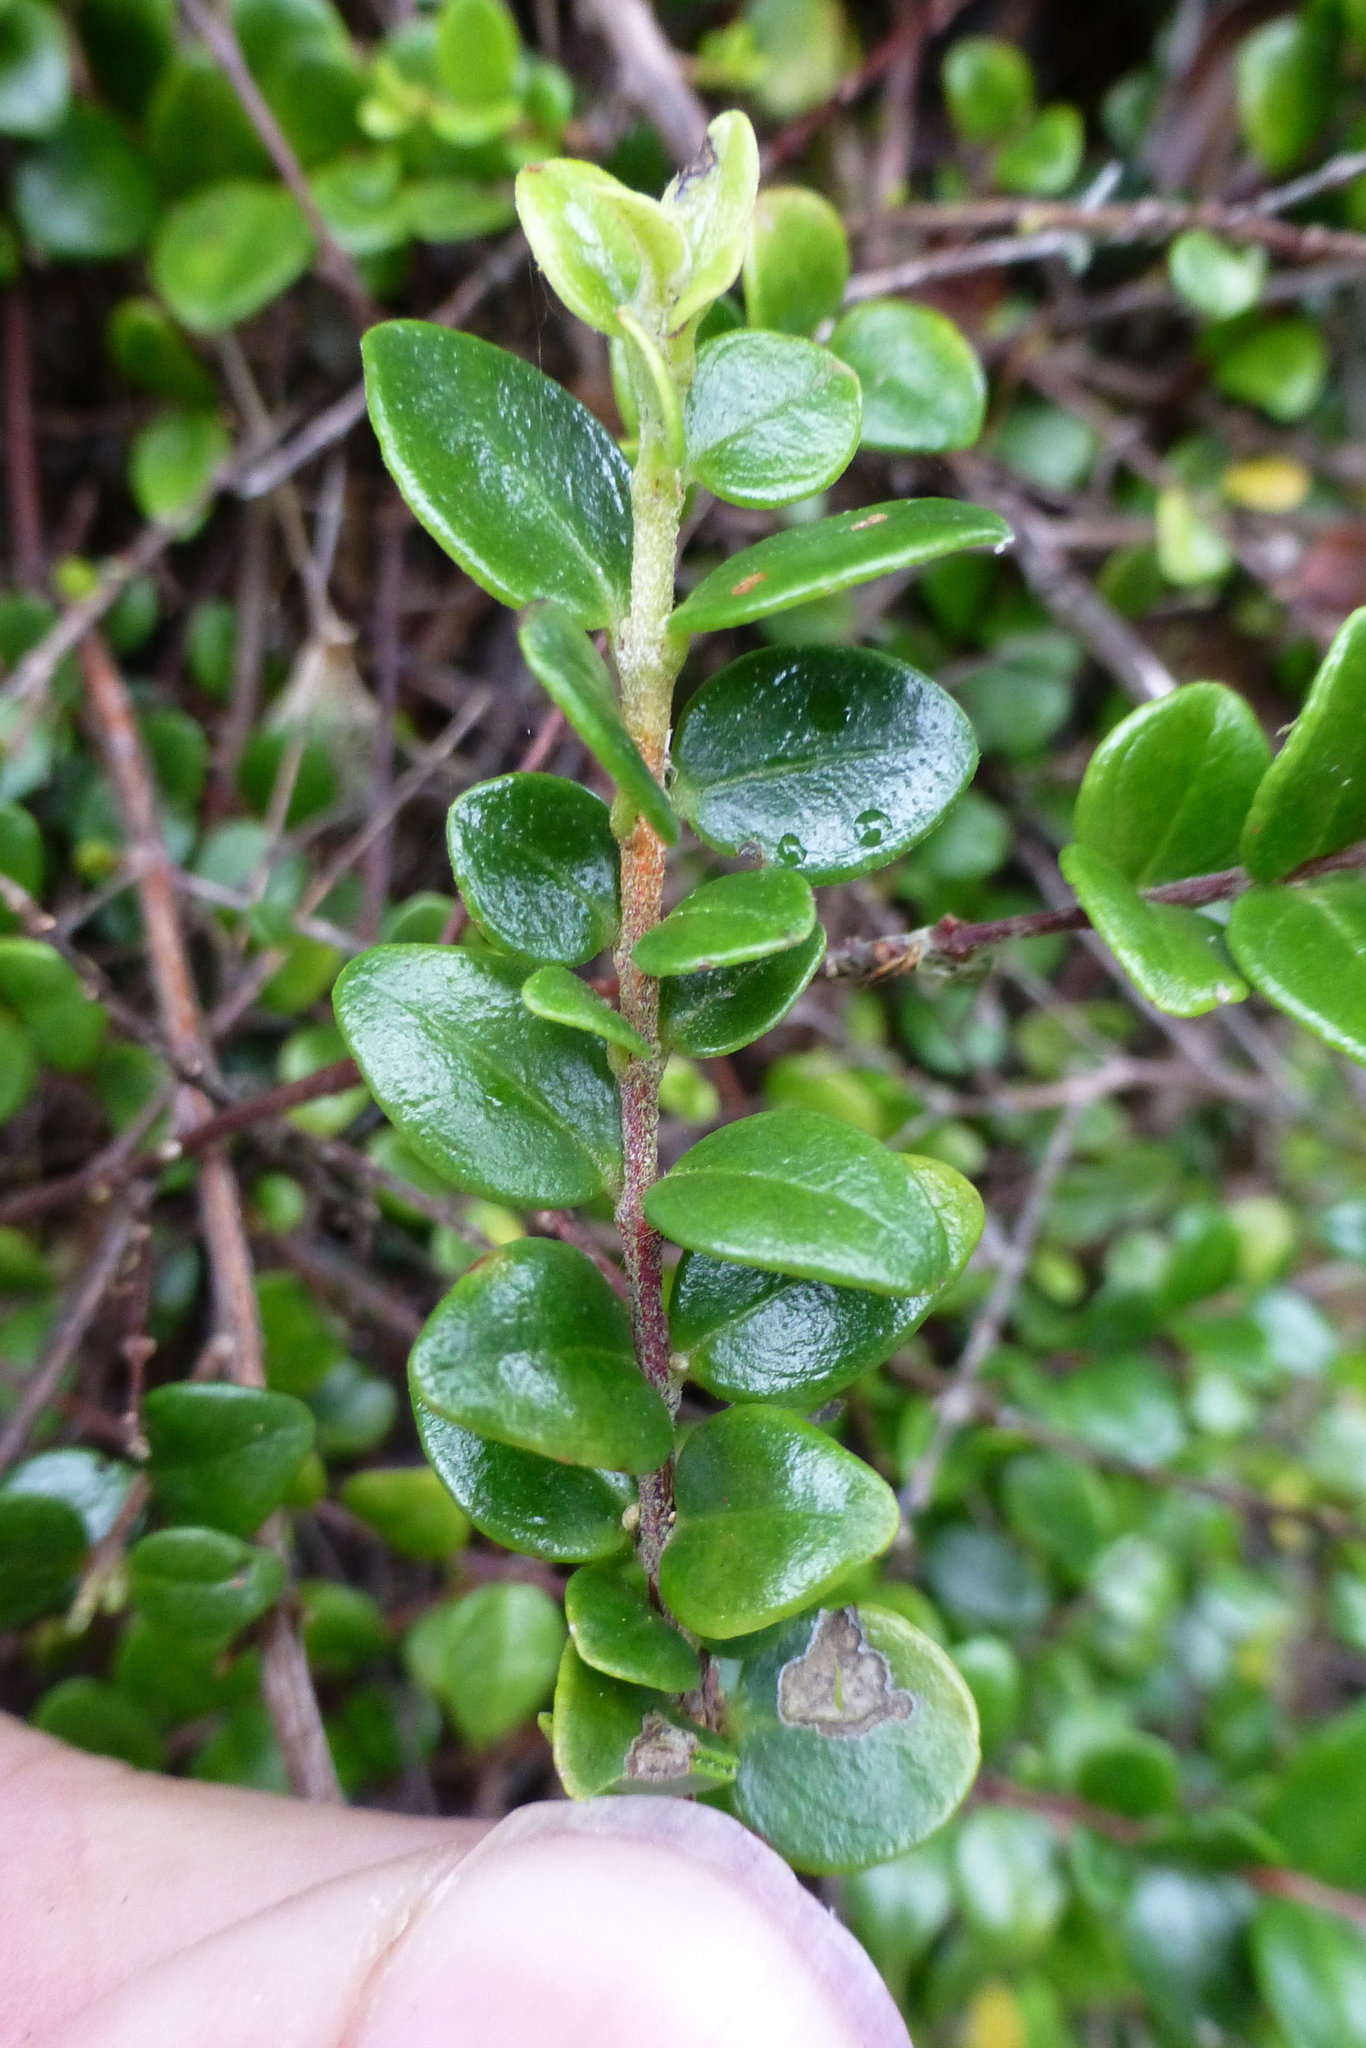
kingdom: Plantae
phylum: Tracheophyta
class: Magnoliopsida
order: Myrtales
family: Myrtaceae
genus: Metrosideros
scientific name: Metrosideros perforata
